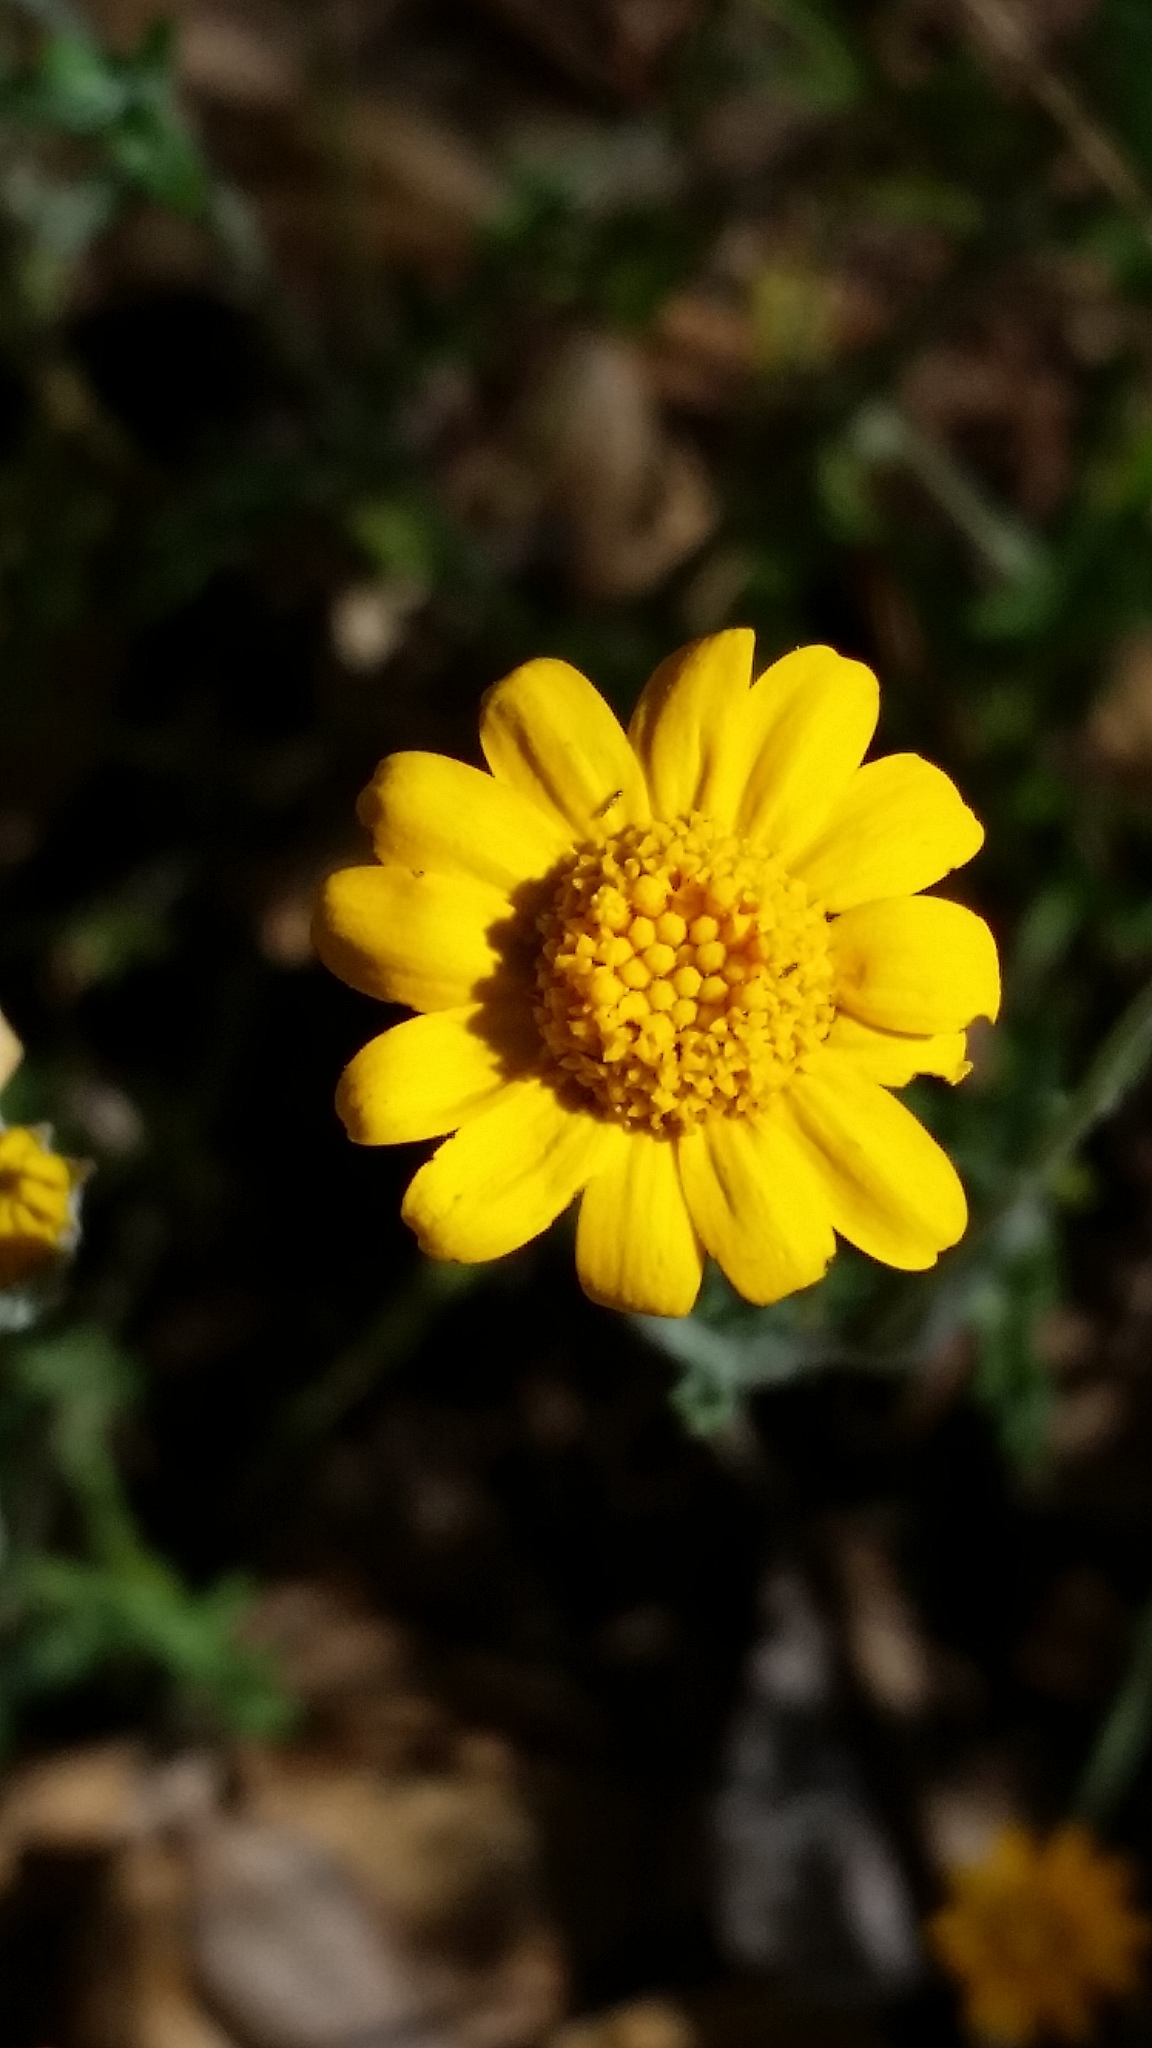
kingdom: Plantae
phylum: Tracheophyta
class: Magnoliopsida
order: Asterales
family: Asteraceae
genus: Eriophyllum
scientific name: Eriophyllum lanatum
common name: Common woolly-sunflower
